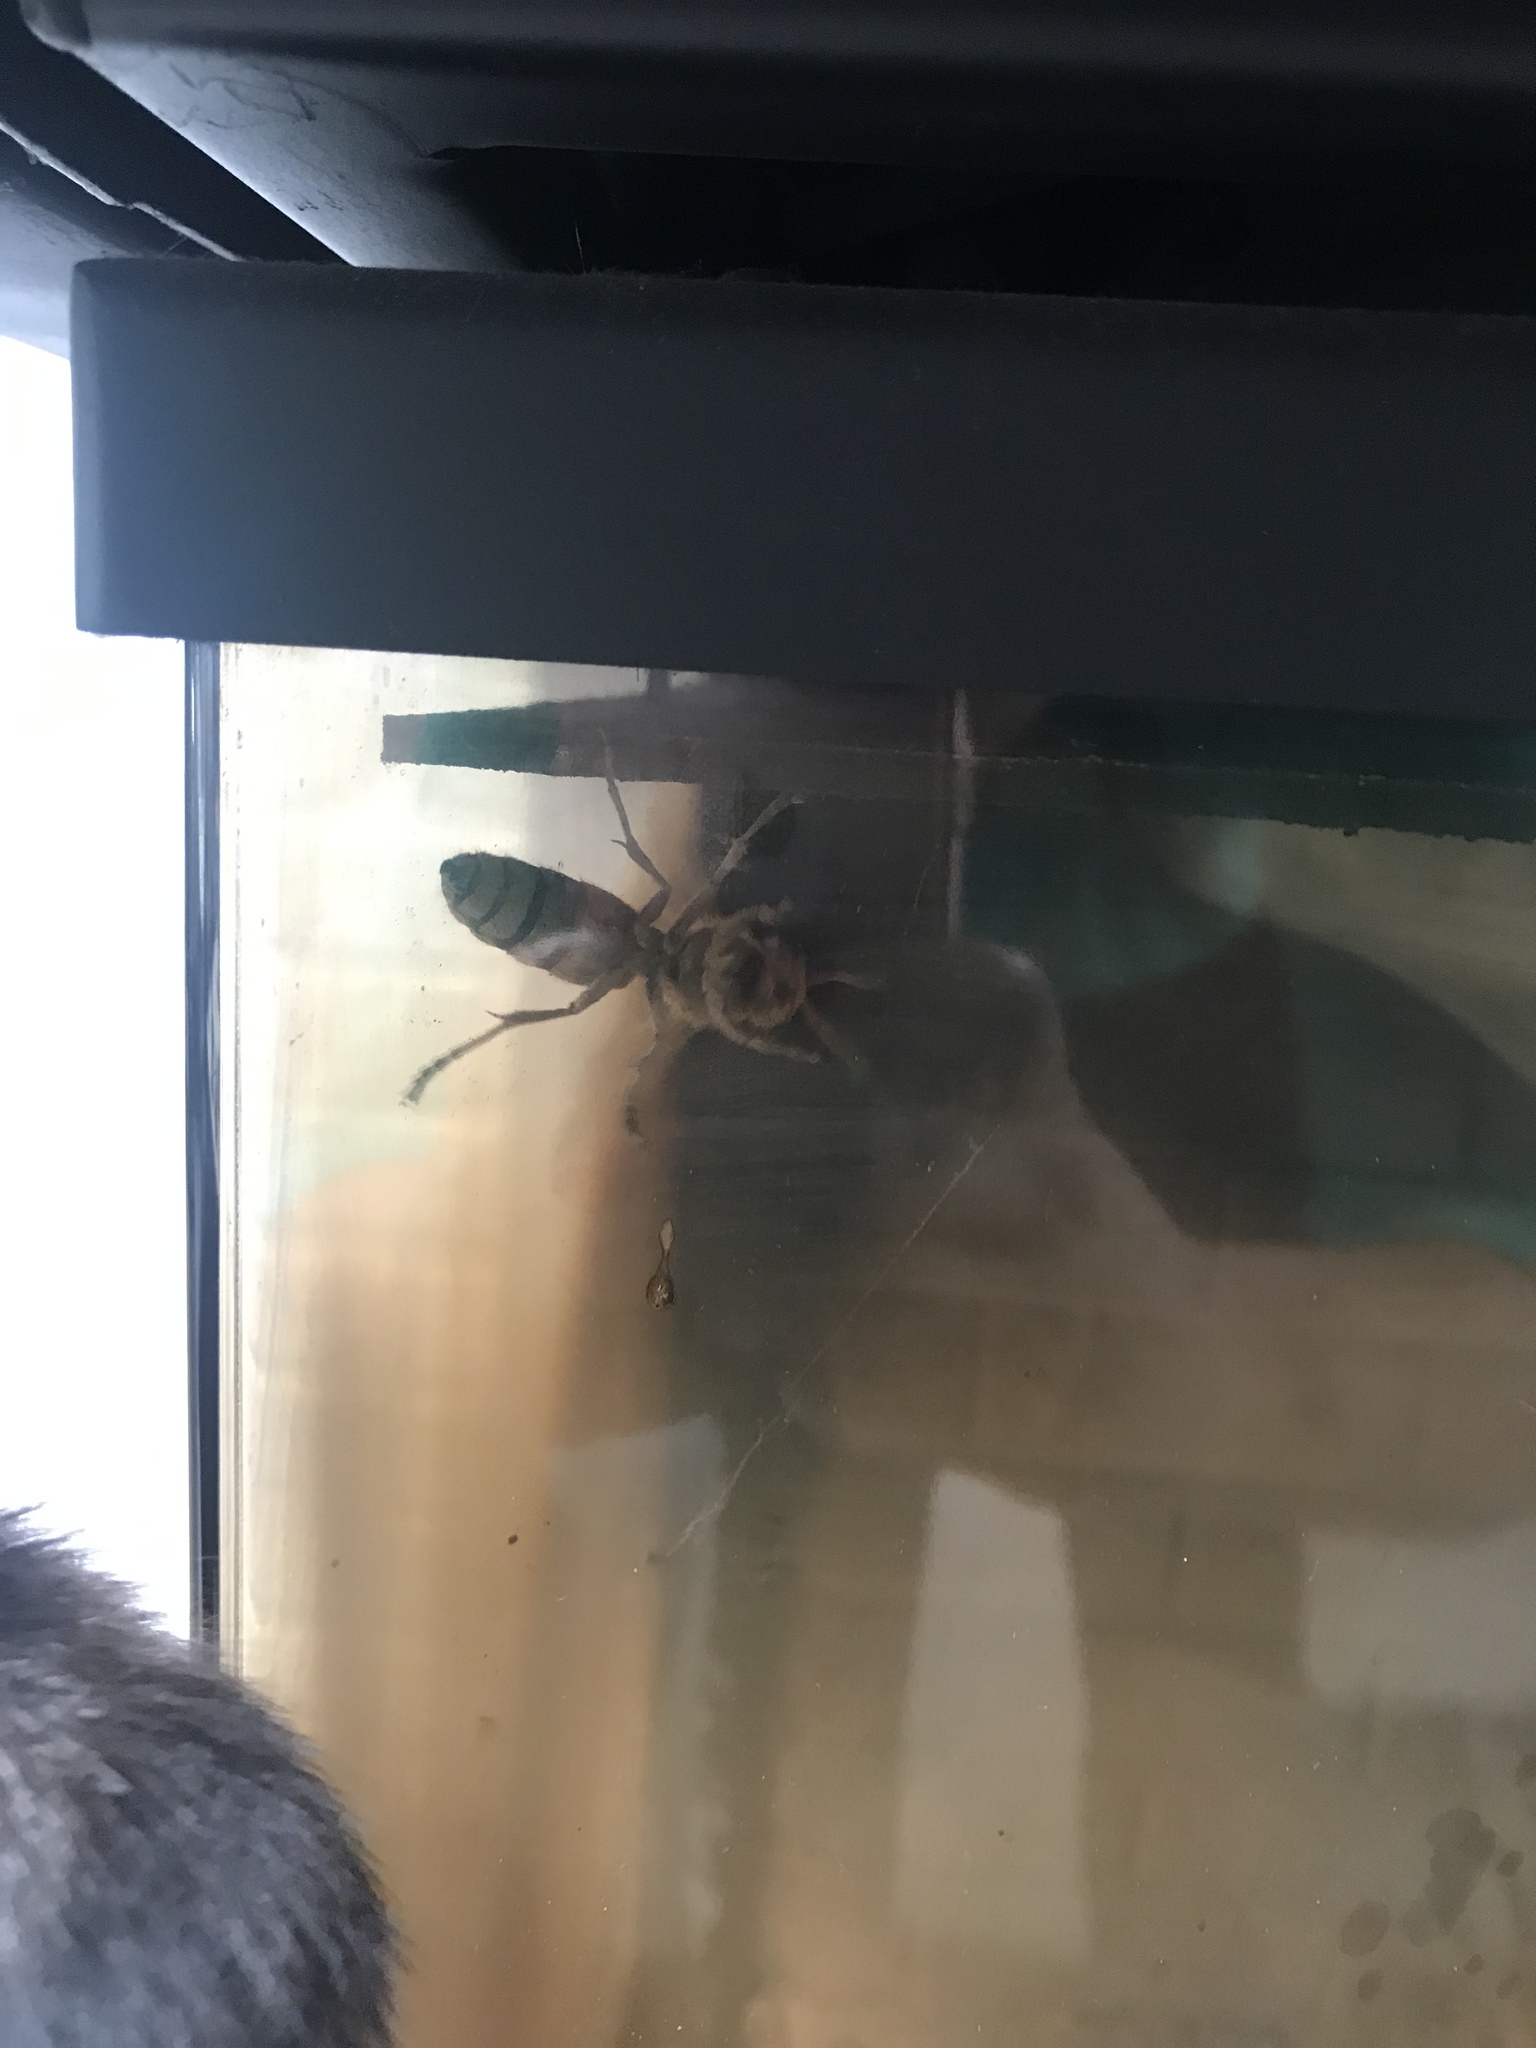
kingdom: Animalia
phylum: Arthropoda
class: Insecta
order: Hymenoptera
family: Vespidae
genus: Vespa
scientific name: Vespa crabro
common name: Hornet
